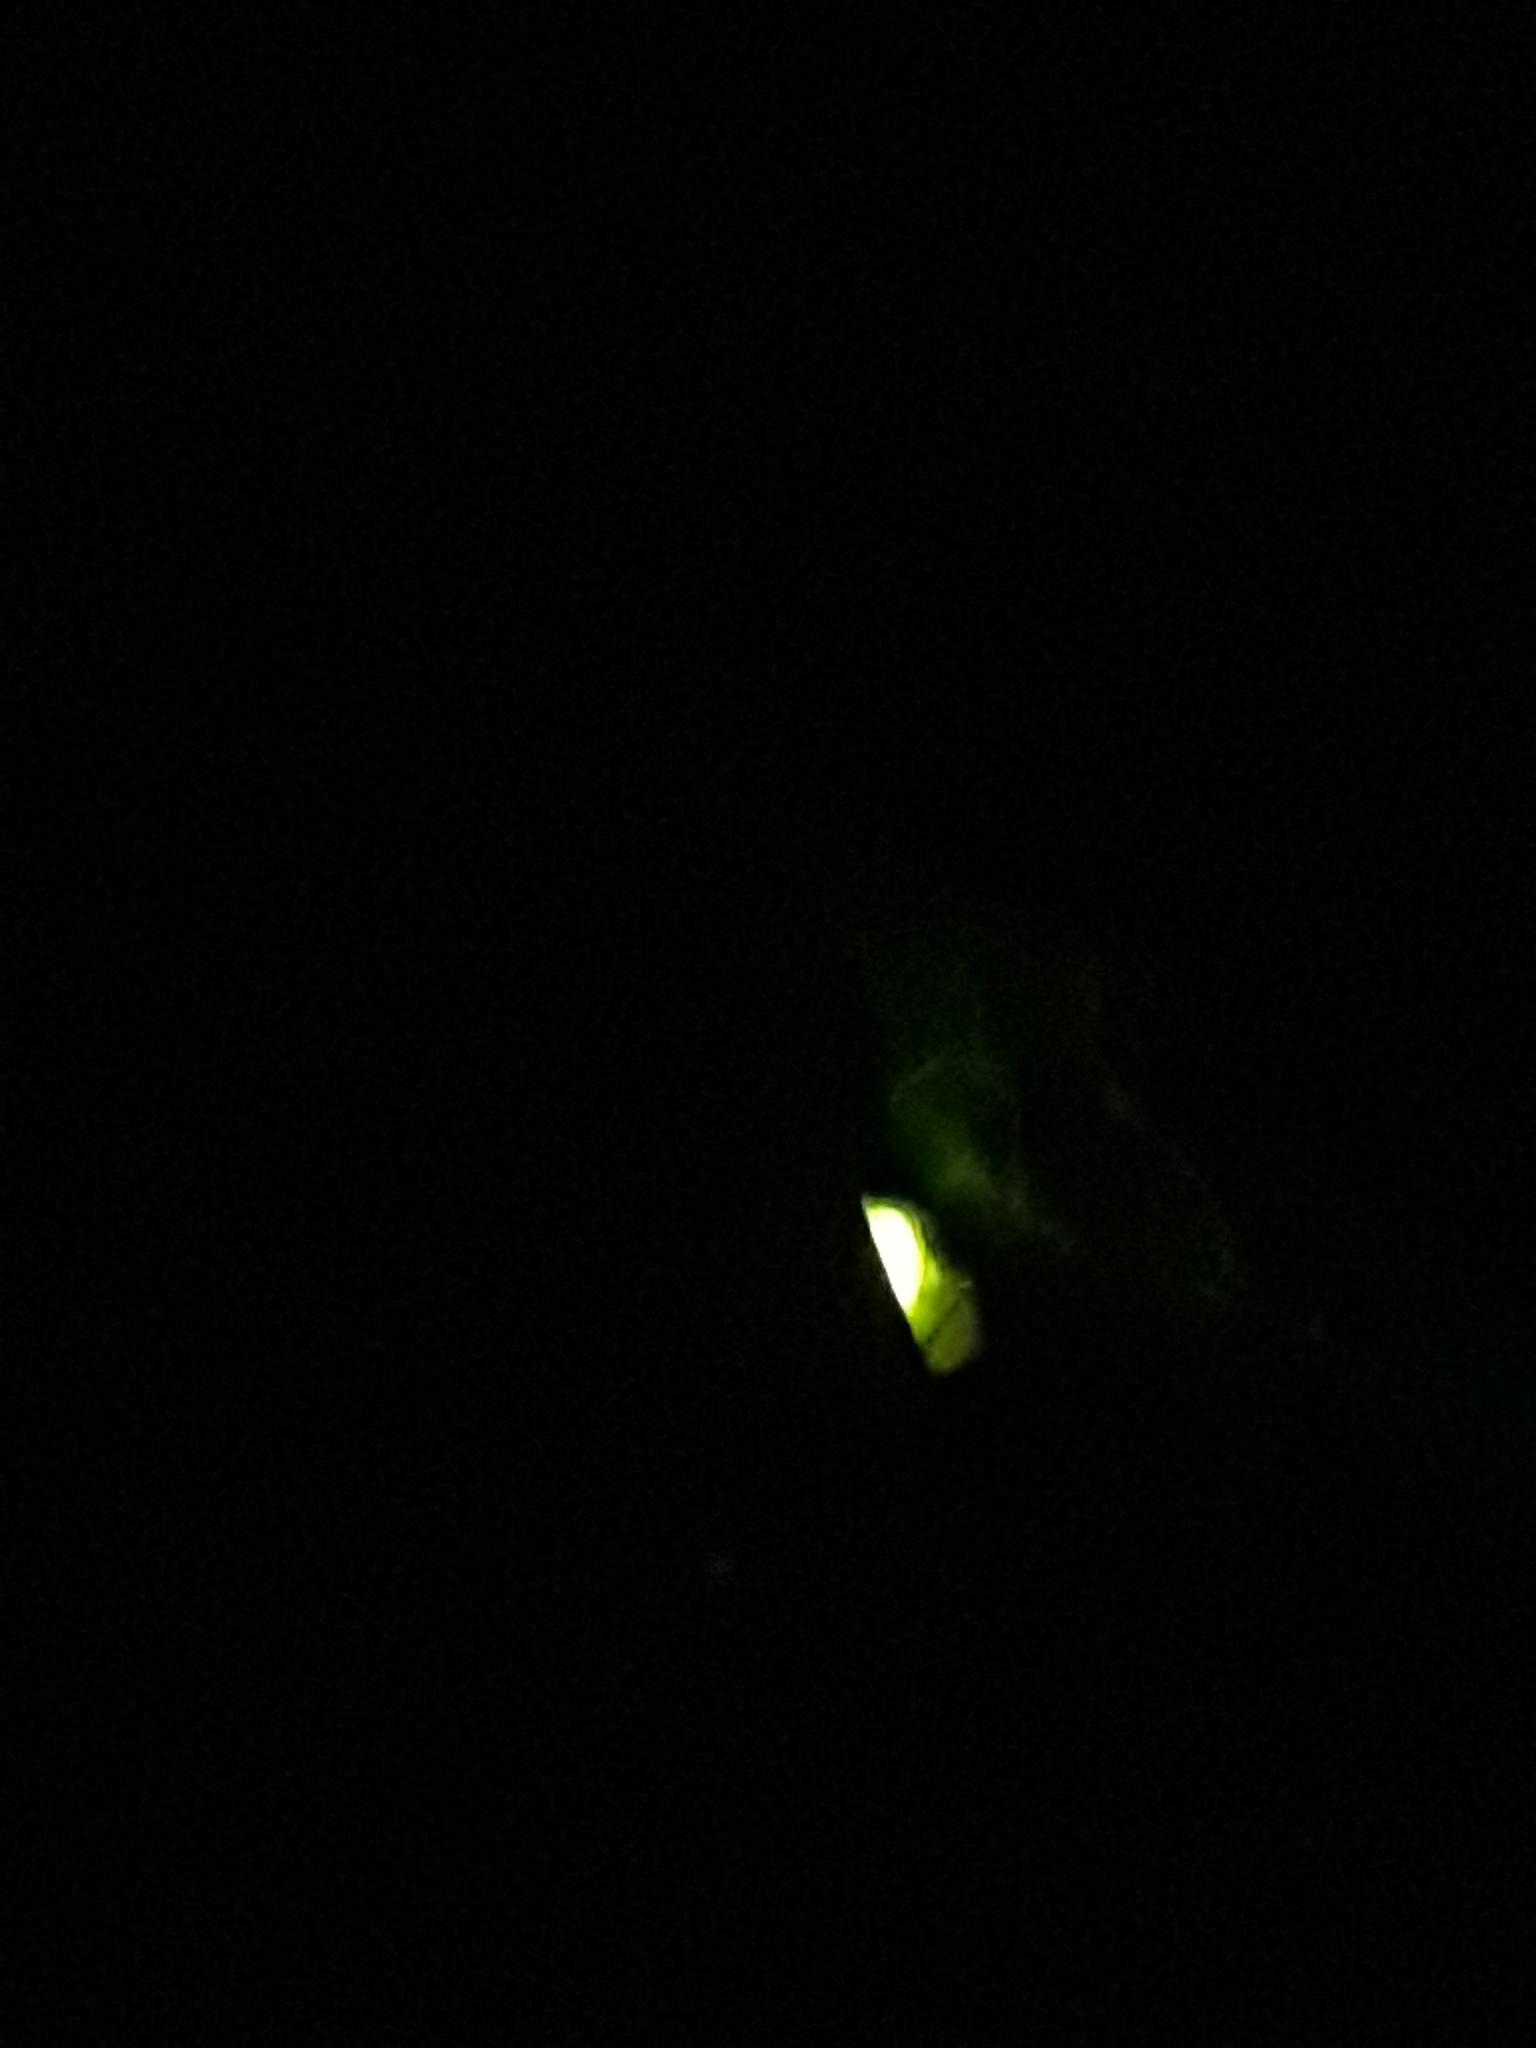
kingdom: Animalia
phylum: Arthropoda
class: Insecta
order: Coleoptera
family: Lampyridae
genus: Lampyris
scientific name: Lampyris noctiluca
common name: Glow-worm
